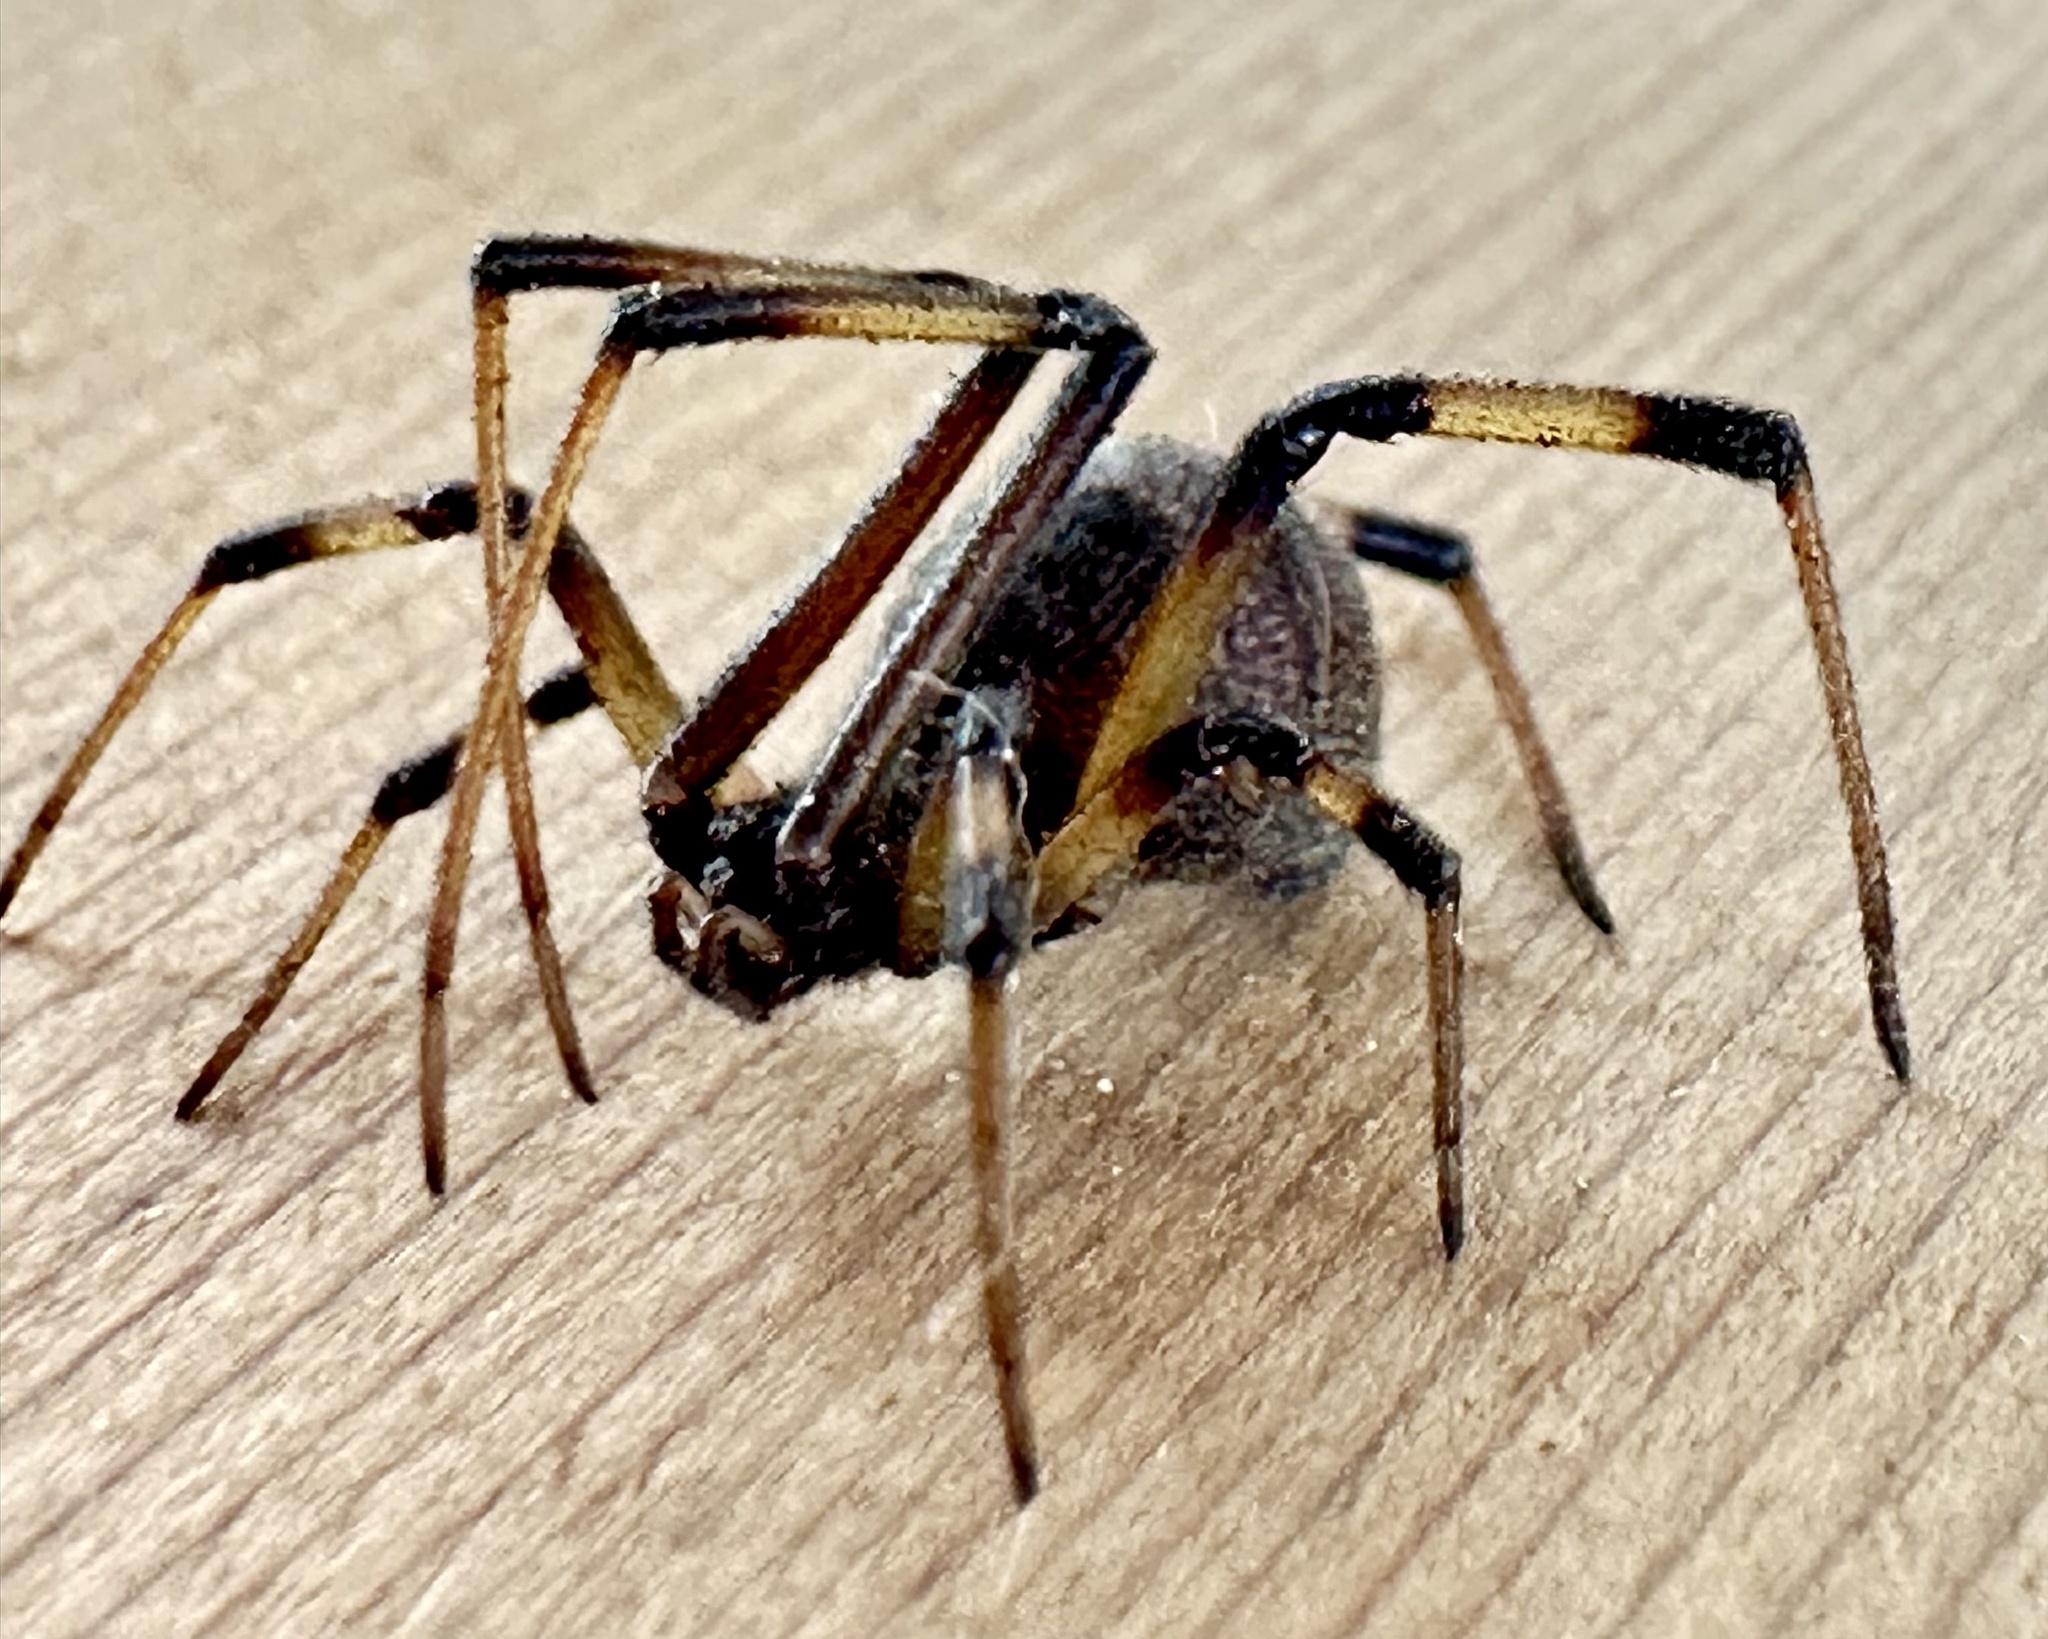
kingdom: Animalia
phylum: Arthropoda
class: Arachnida
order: Araneae
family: Theridiidae
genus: Latrodectus
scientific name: Latrodectus geometricus
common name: Brown widow spider
